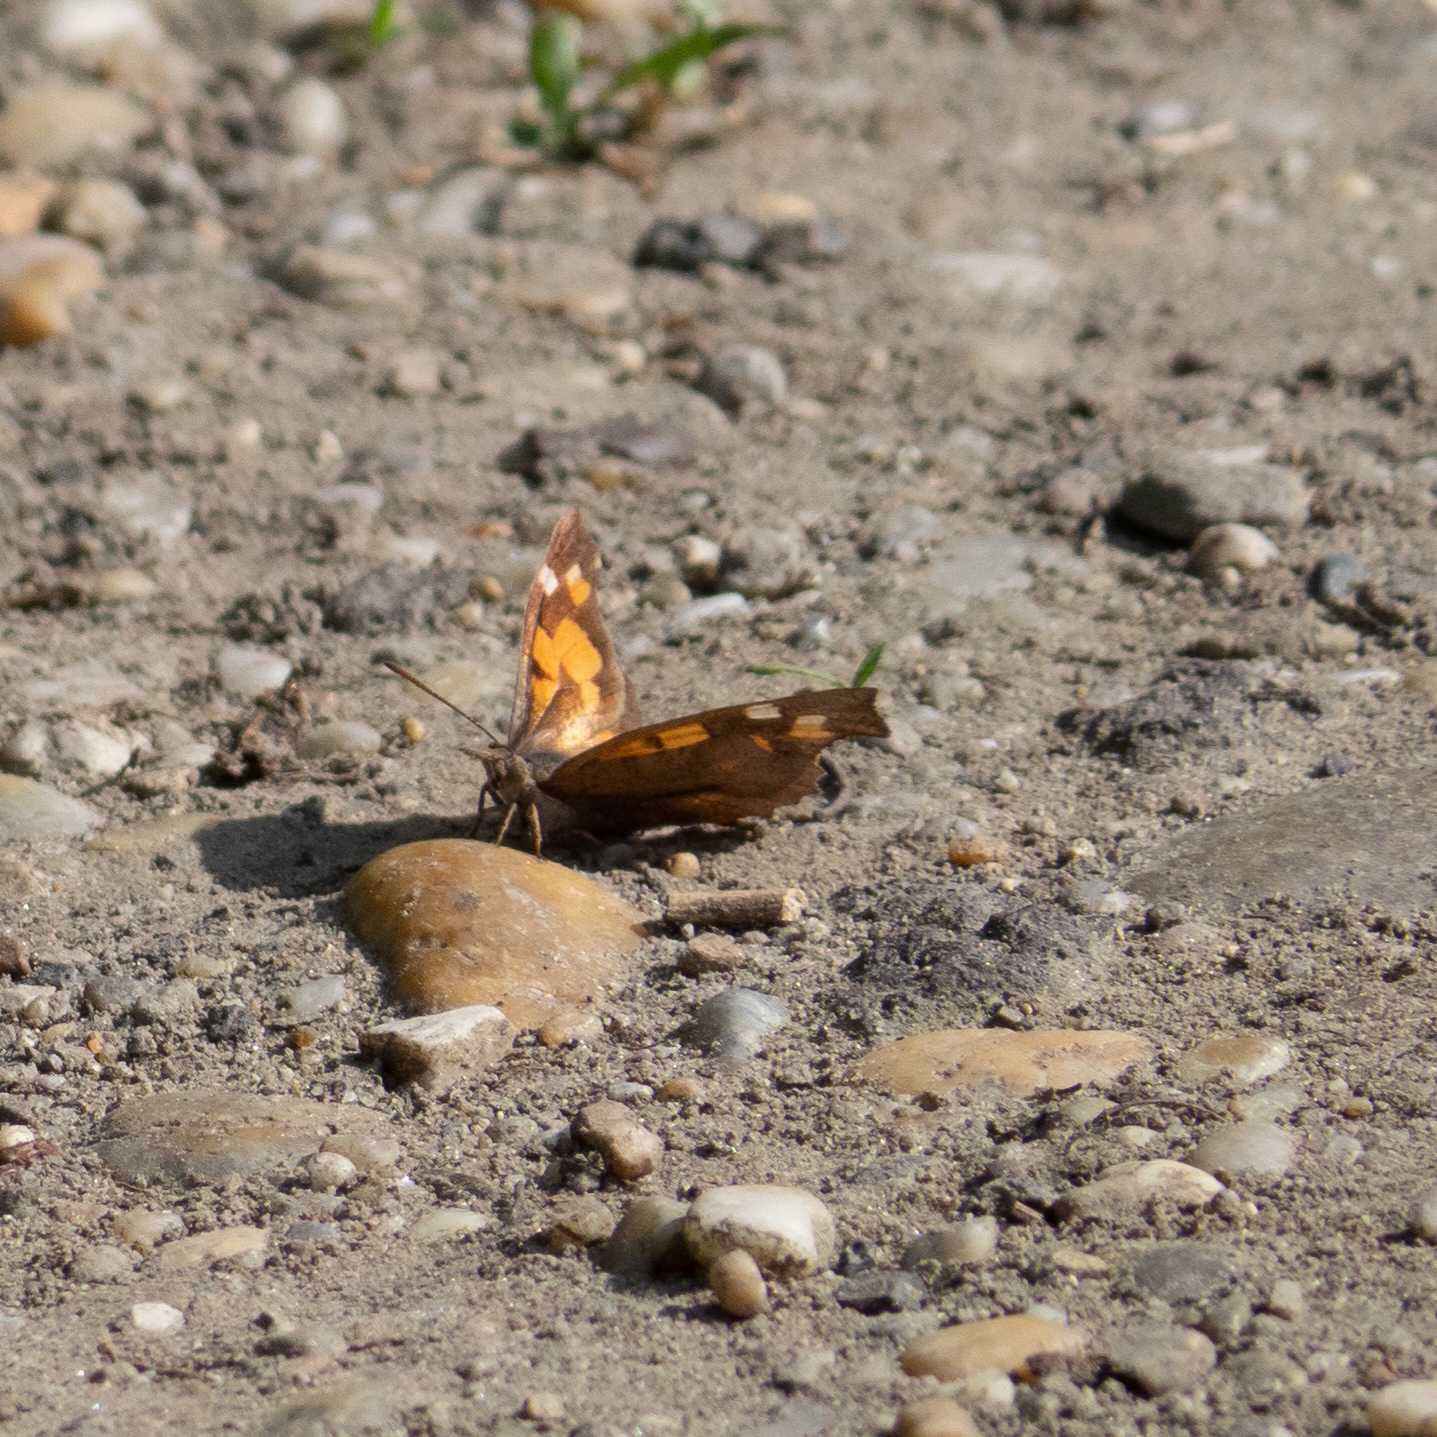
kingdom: Animalia
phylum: Arthropoda
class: Insecta
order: Lepidoptera
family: Nymphalidae
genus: Libythea
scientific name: Libythea celtis
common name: Nettle-tree butterfly
